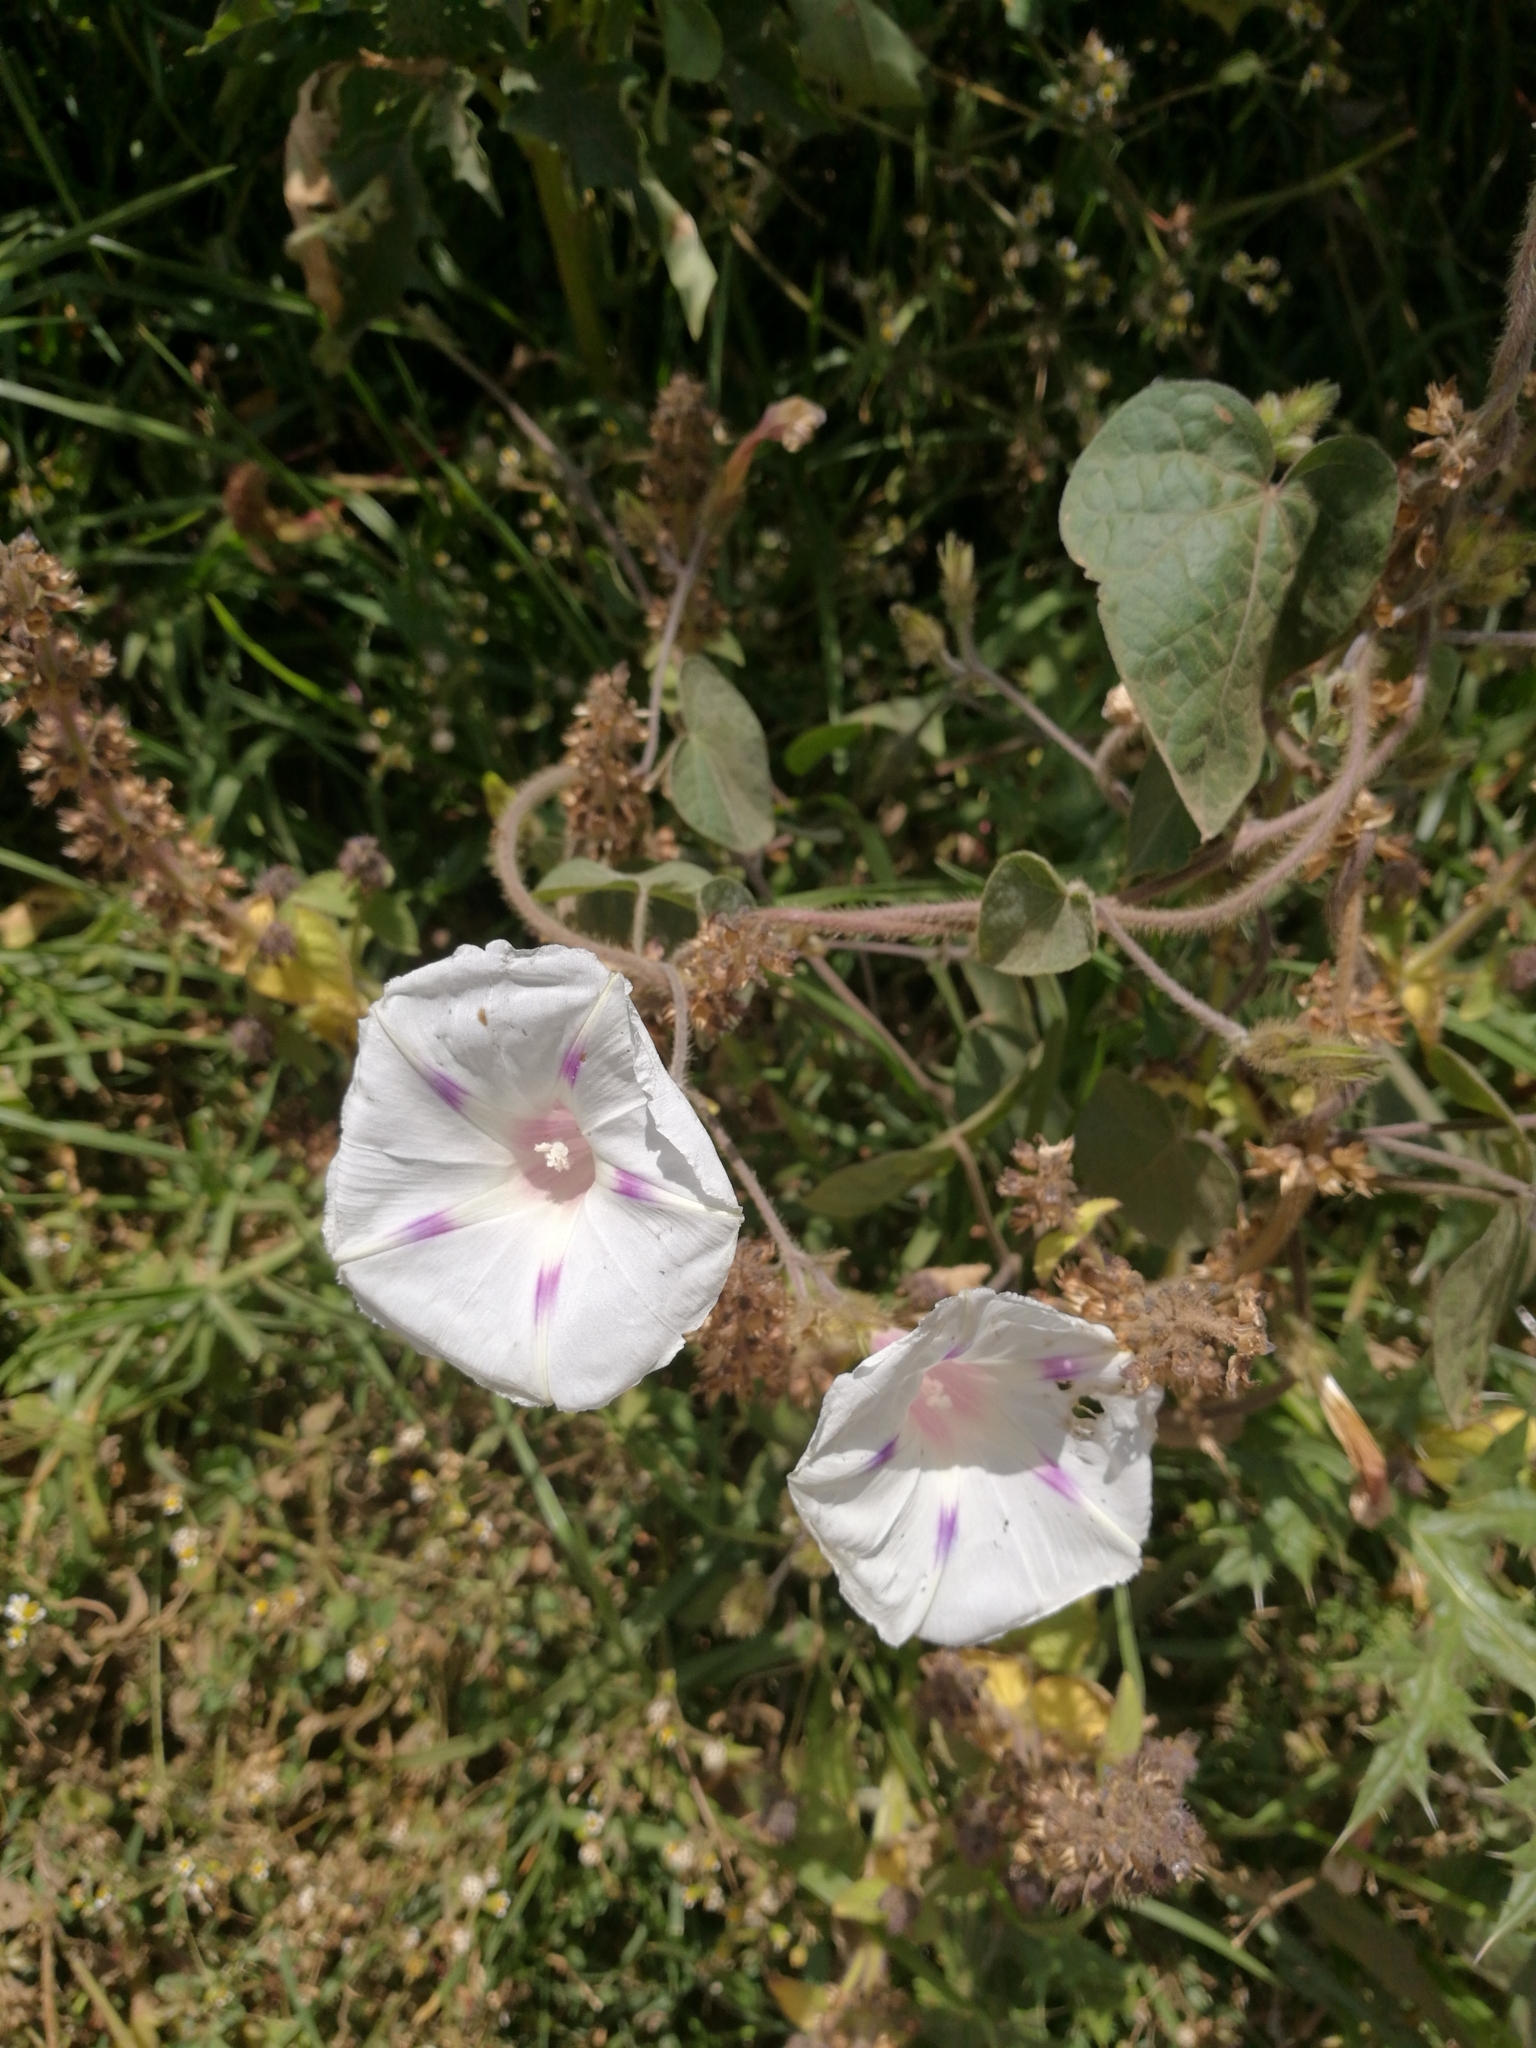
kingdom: Plantae
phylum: Tracheophyta
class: Magnoliopsida
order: Solanales
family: Convolvulaceae
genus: Ipomoea
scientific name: Ipomoea purpurea
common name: Common morning-glory
